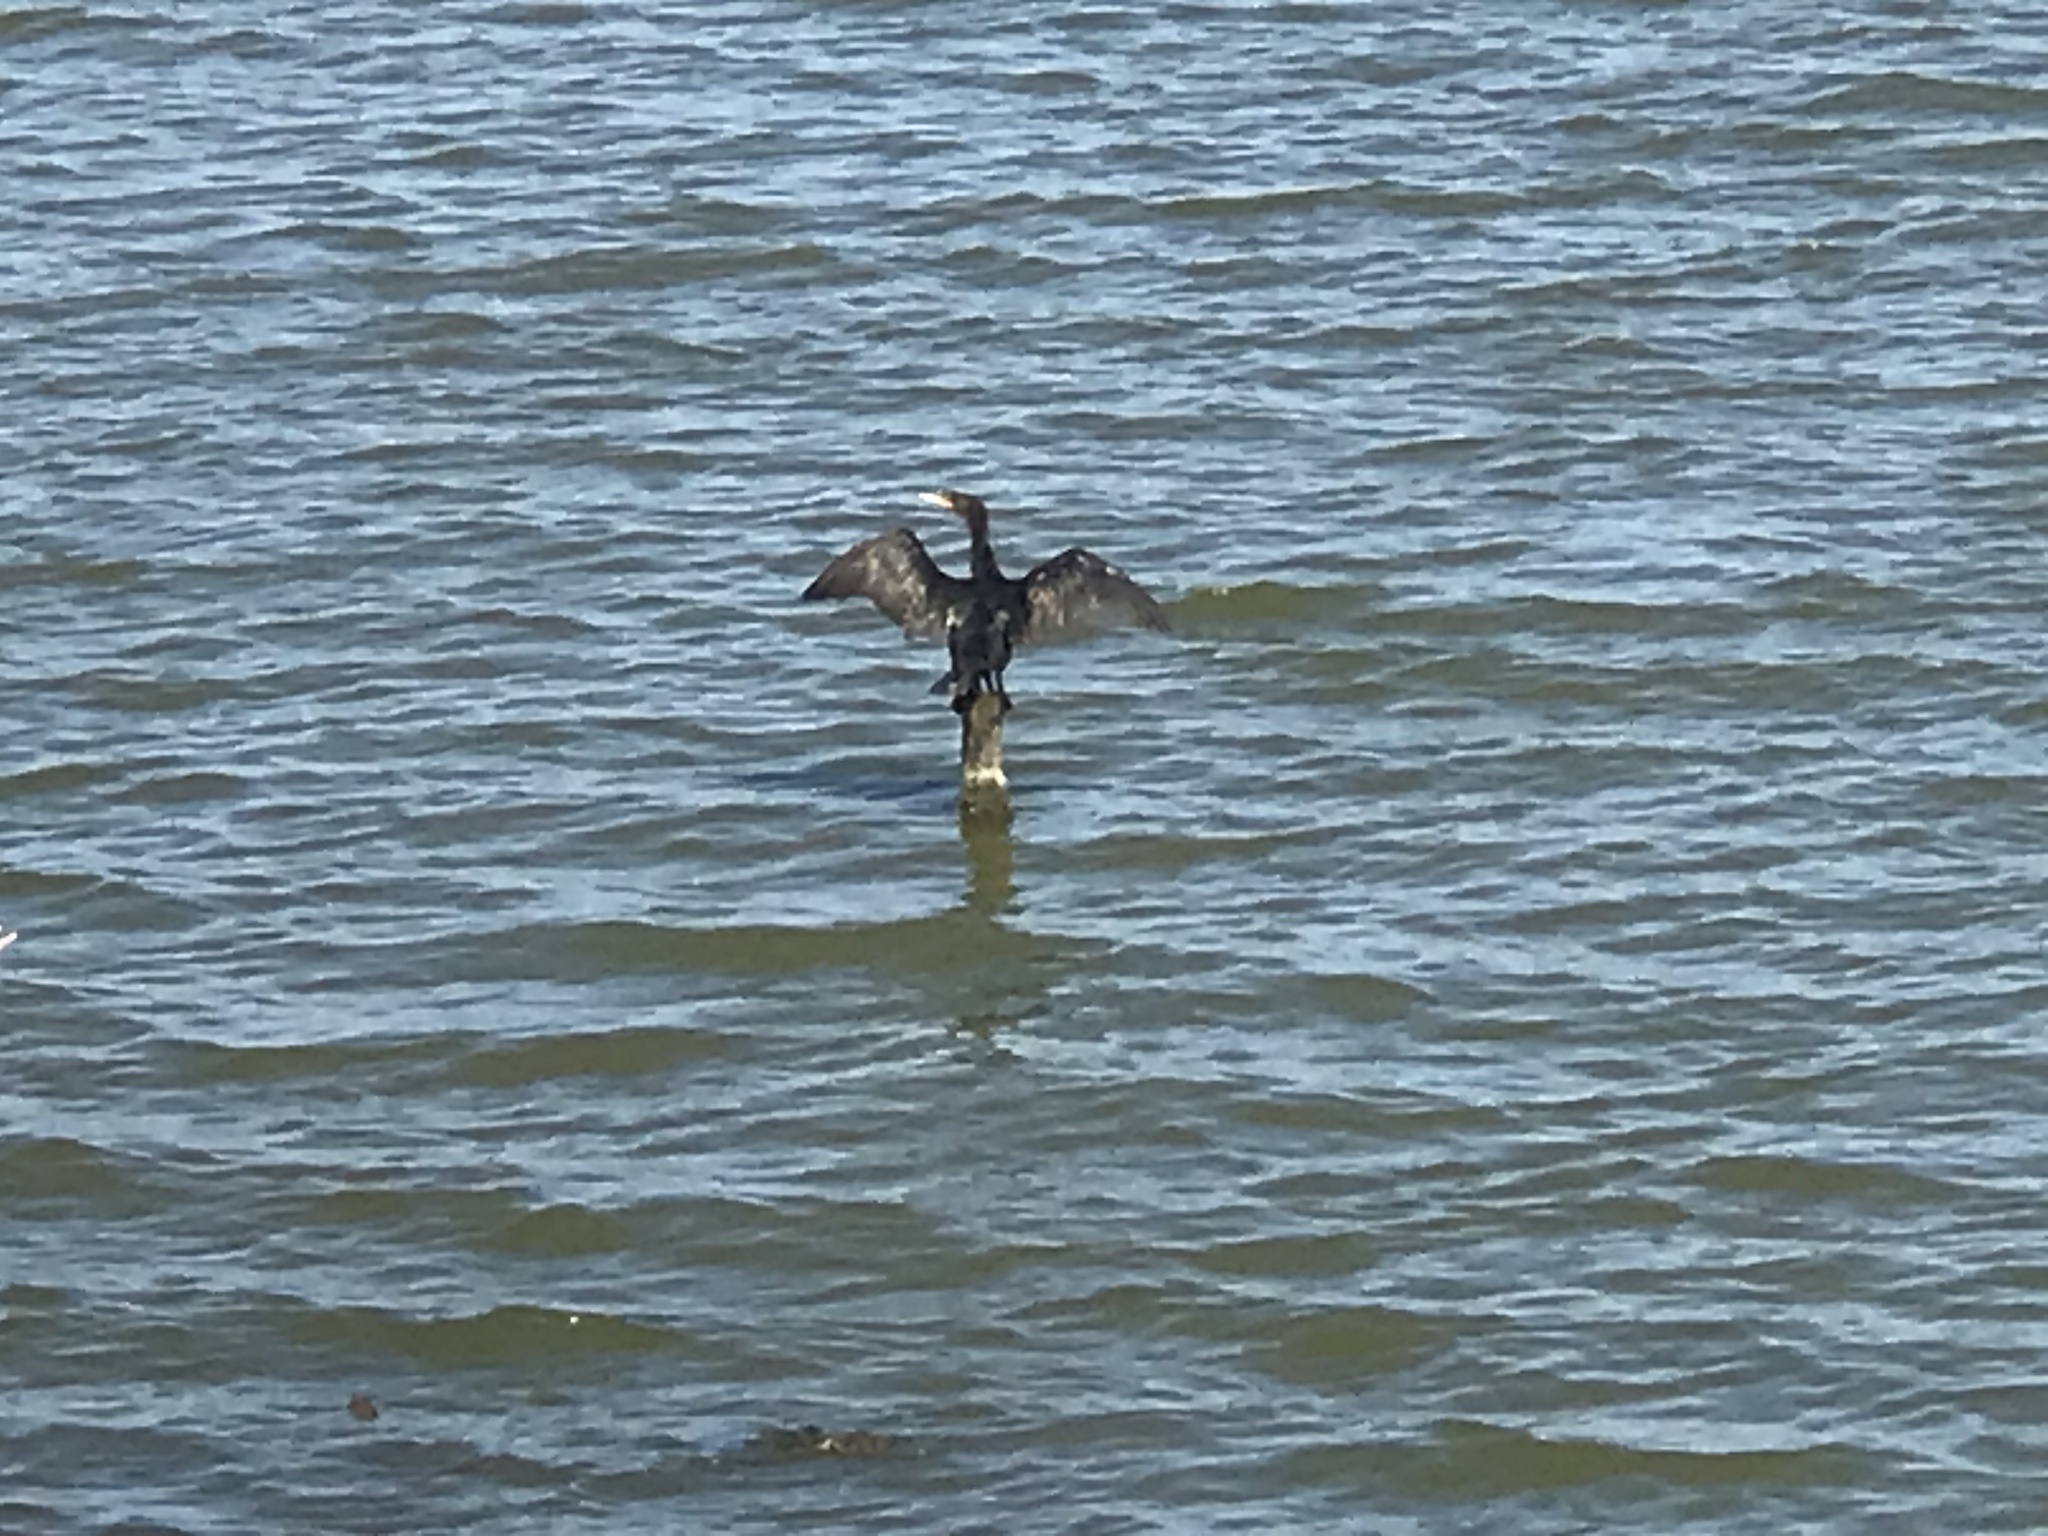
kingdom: Animalia
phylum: Chordata
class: Aves
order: Suliformes
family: Phalacrocoracidae
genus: Phalacrocorax
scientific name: Phalacrocorax auritus
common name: Double-crested cormorant
